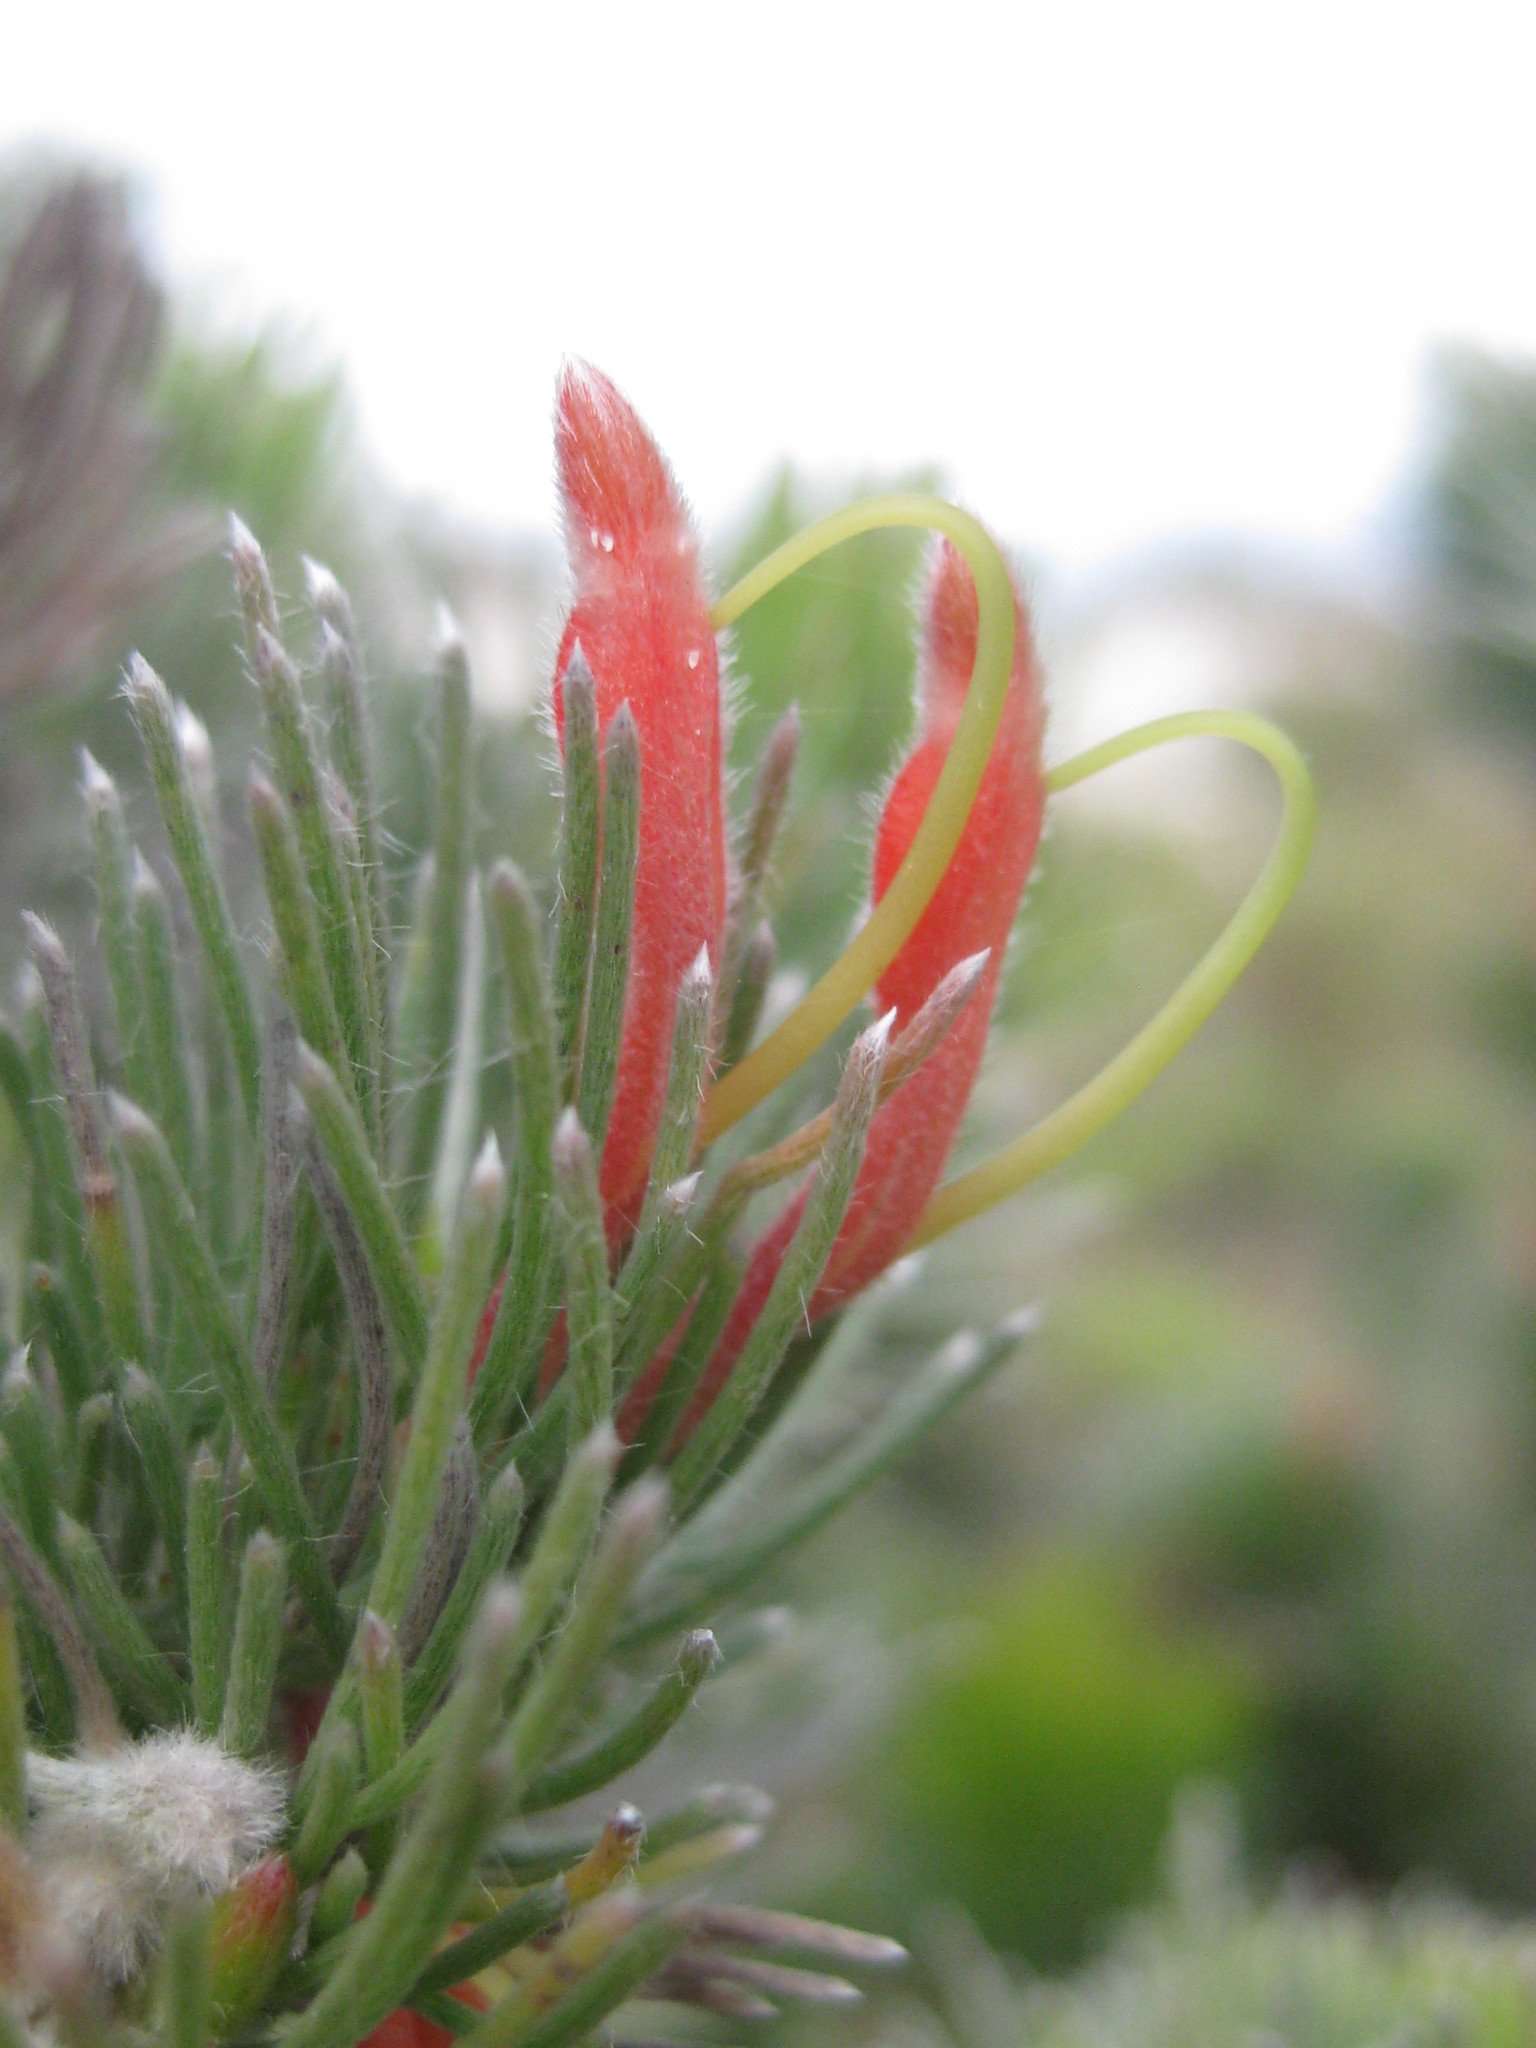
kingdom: Plantae
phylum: Tracheophyta
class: Magnoliopsida
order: Proteales
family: Proteaceae
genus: Adenanthos
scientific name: Adenanthos sericeus
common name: Coastal woollybush
